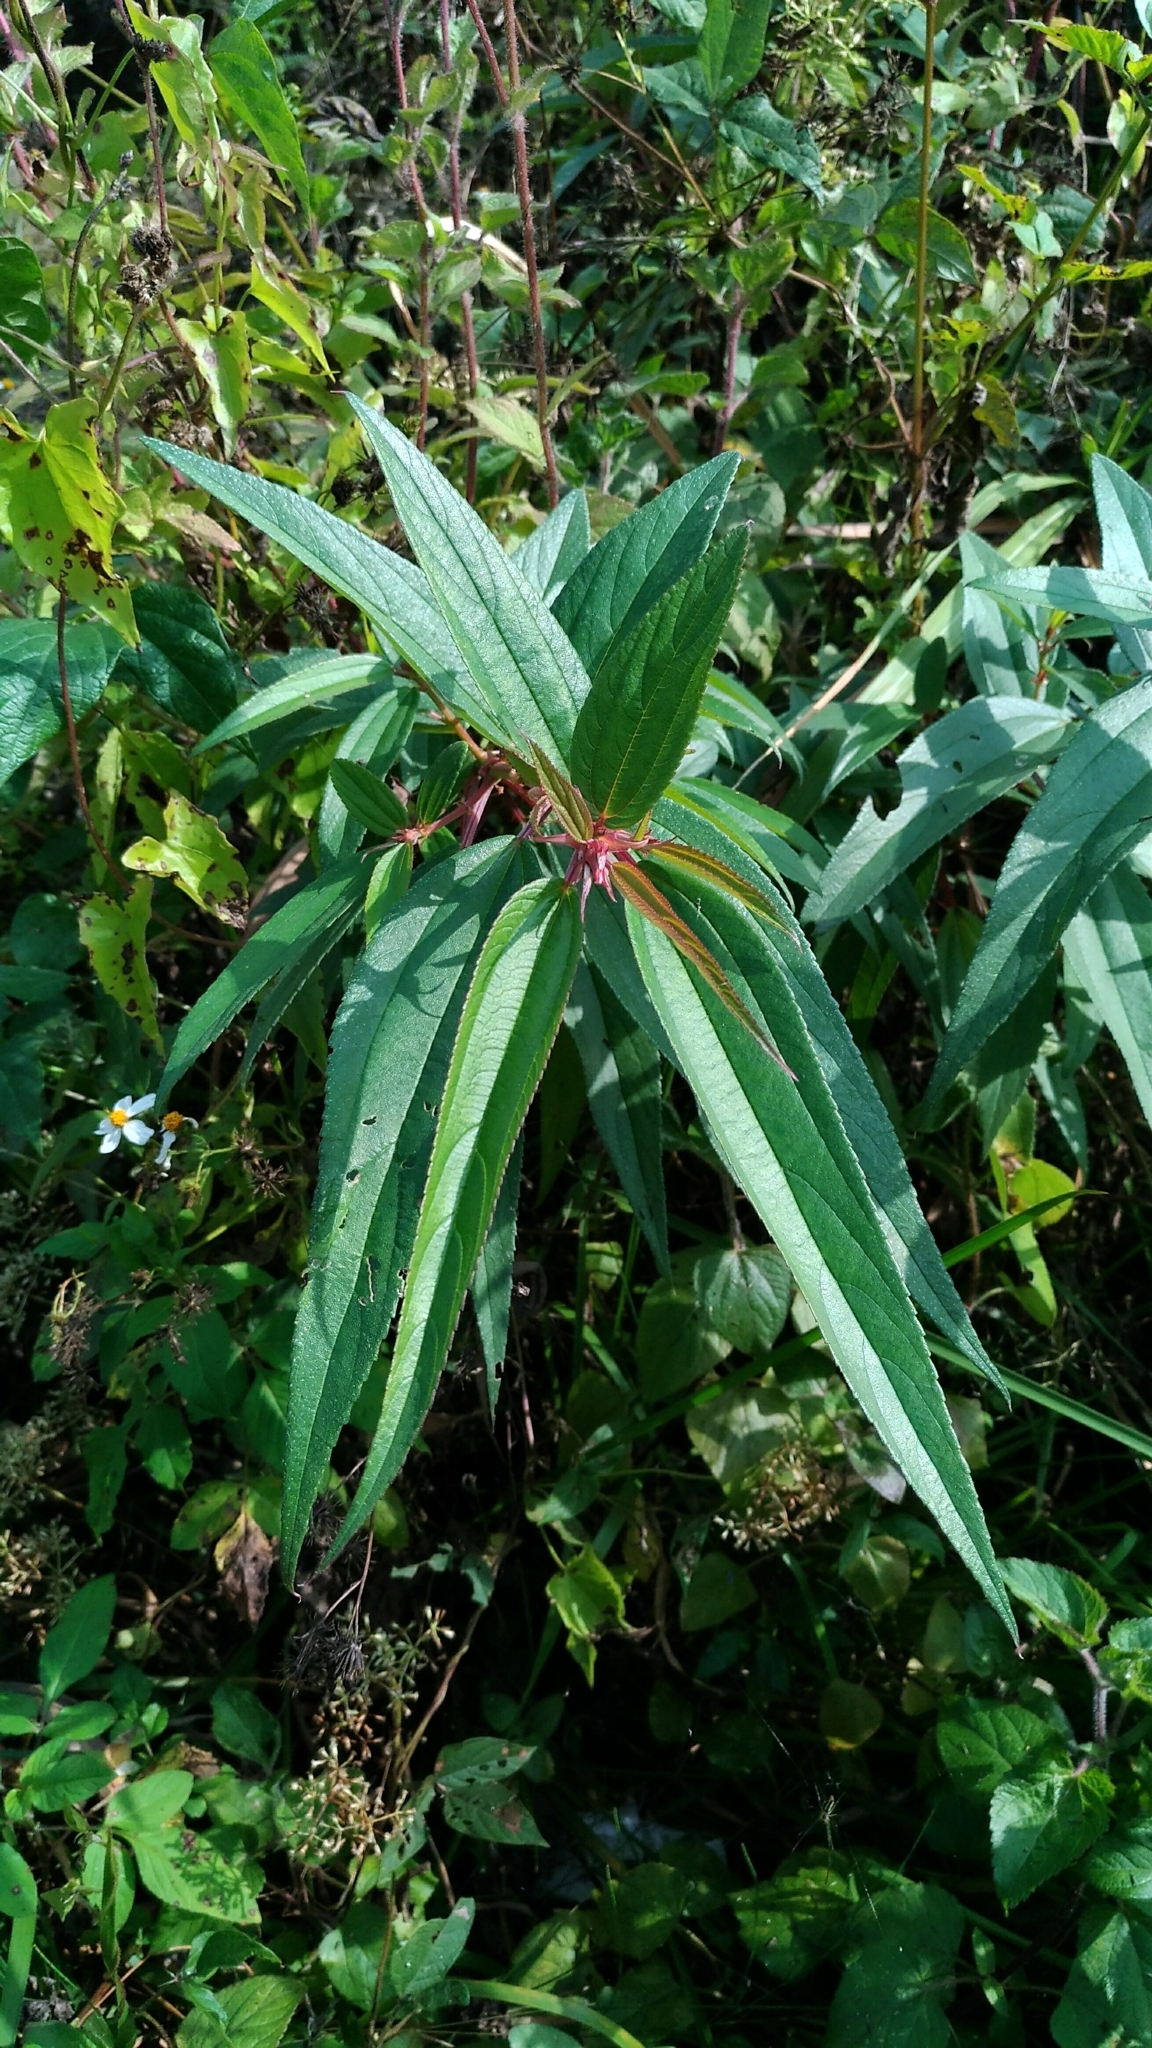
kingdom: Plantae
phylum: Tracheophyta
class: Magnoliopsida
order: Rosales
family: Urticaceae
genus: Boehmeria
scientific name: Boehmeria densiflora
